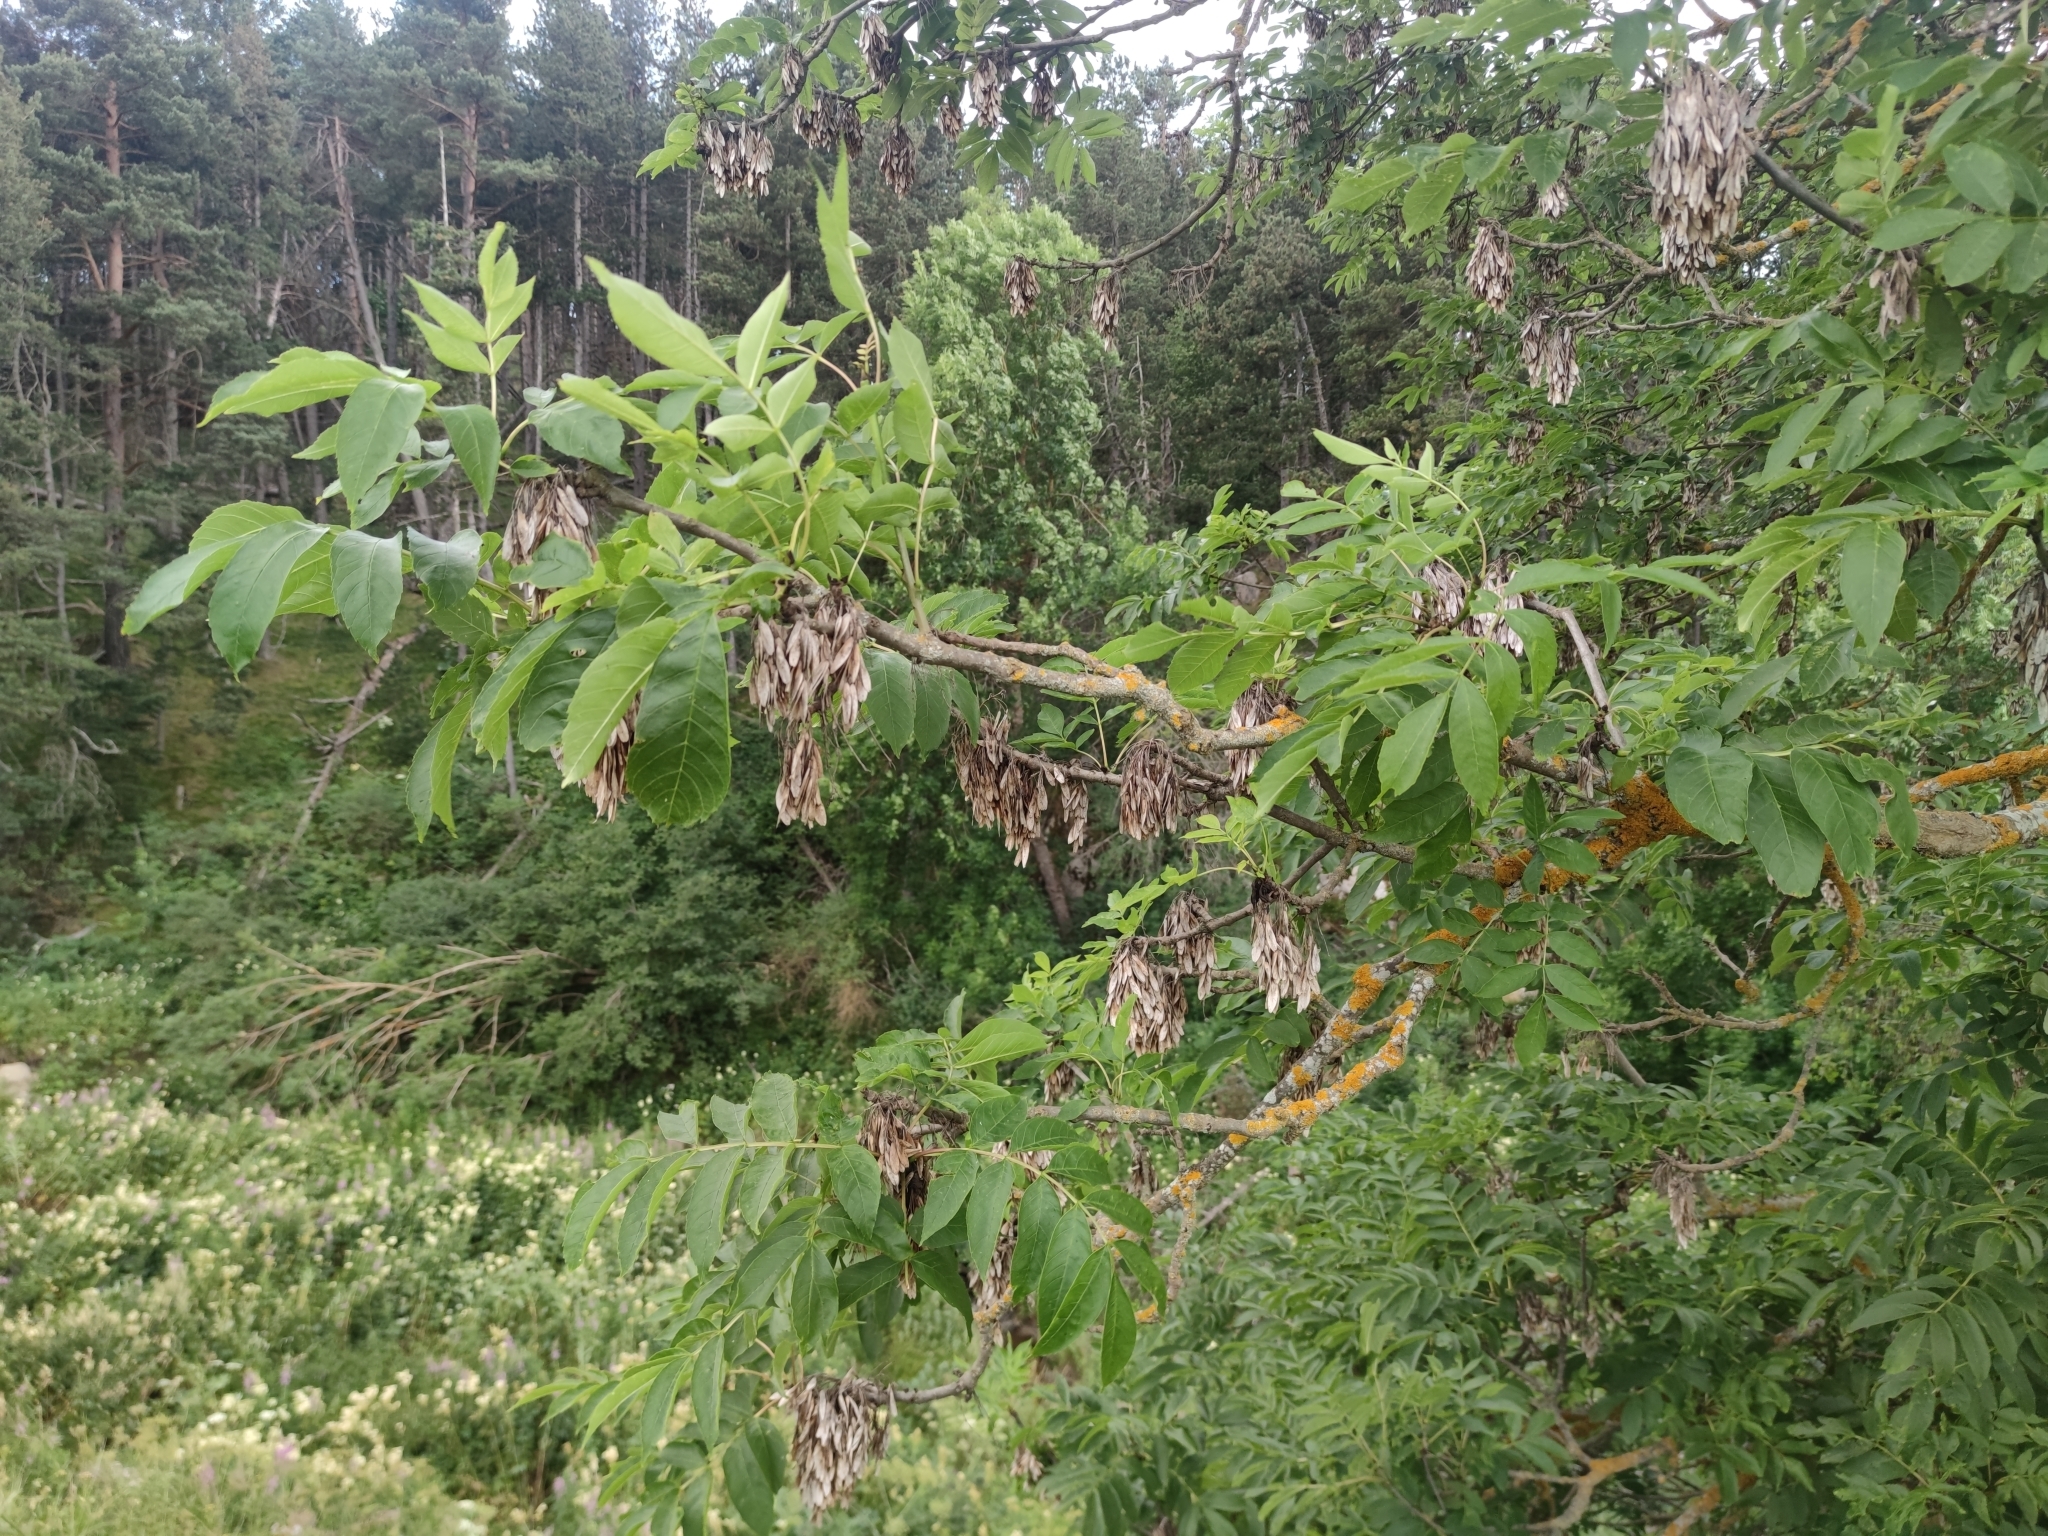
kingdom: Plantae
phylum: Tracheophyta
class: Magnoliopsida
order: Lamiales
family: Oleaceae
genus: Fraxinus
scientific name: Fraxinus excelsior
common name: European ash
